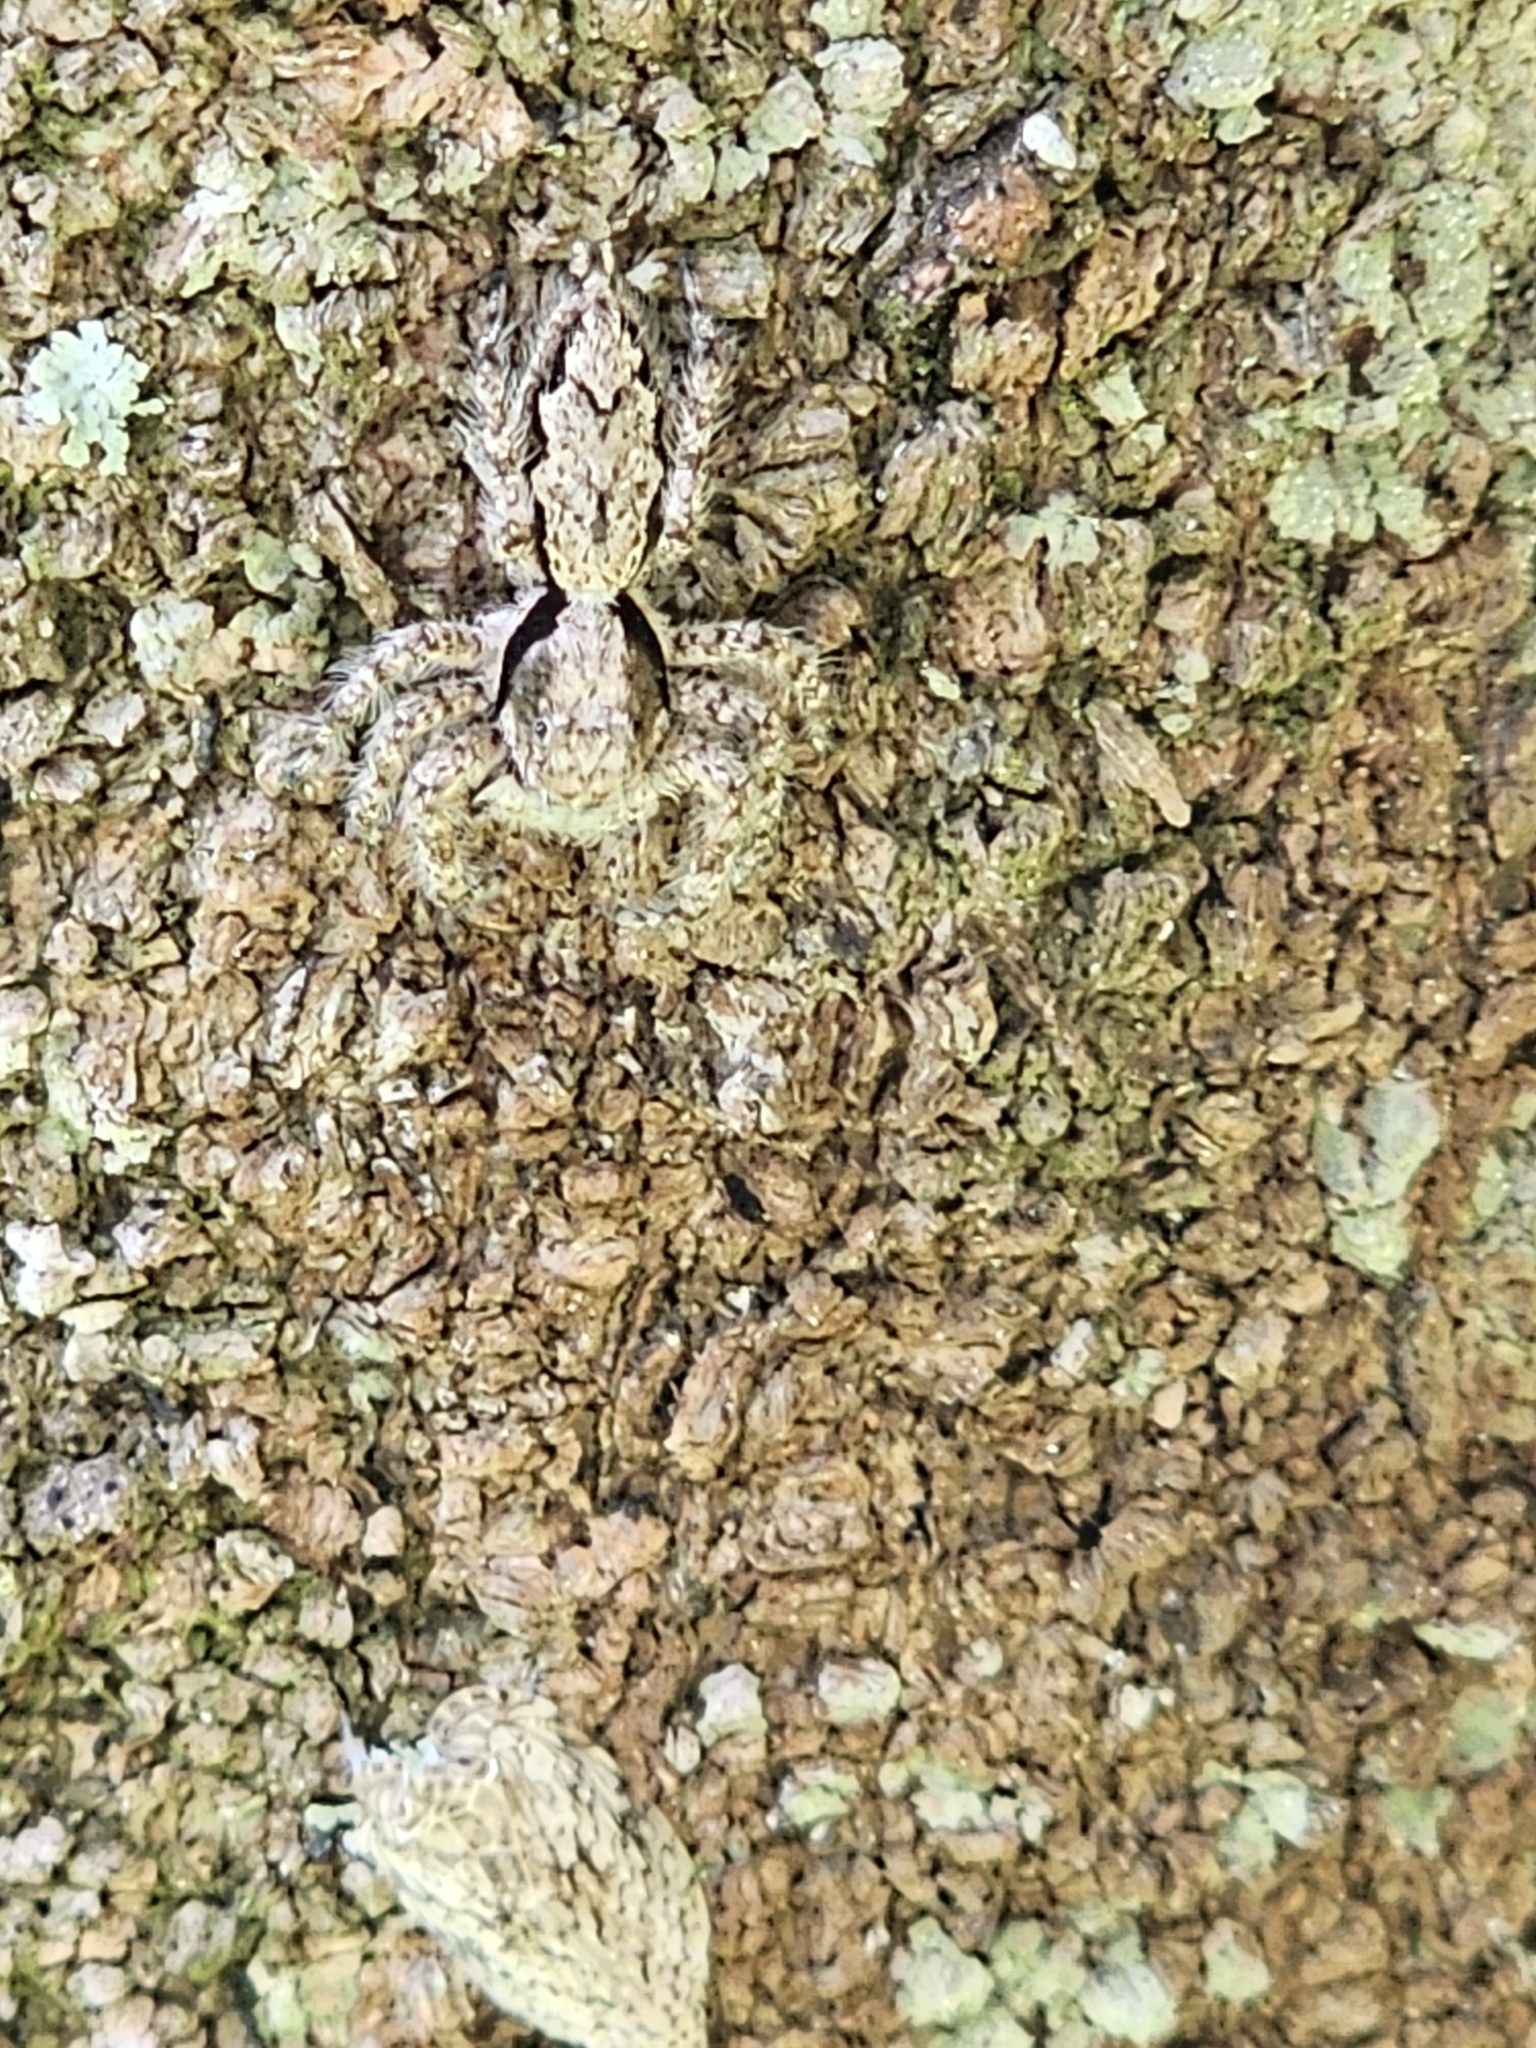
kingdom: Animalia
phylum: Arthropoda
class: Arachnida
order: Araneae
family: Salticidae
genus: Platycryptus
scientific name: Platycryptus magnus
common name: Jumping spiders
